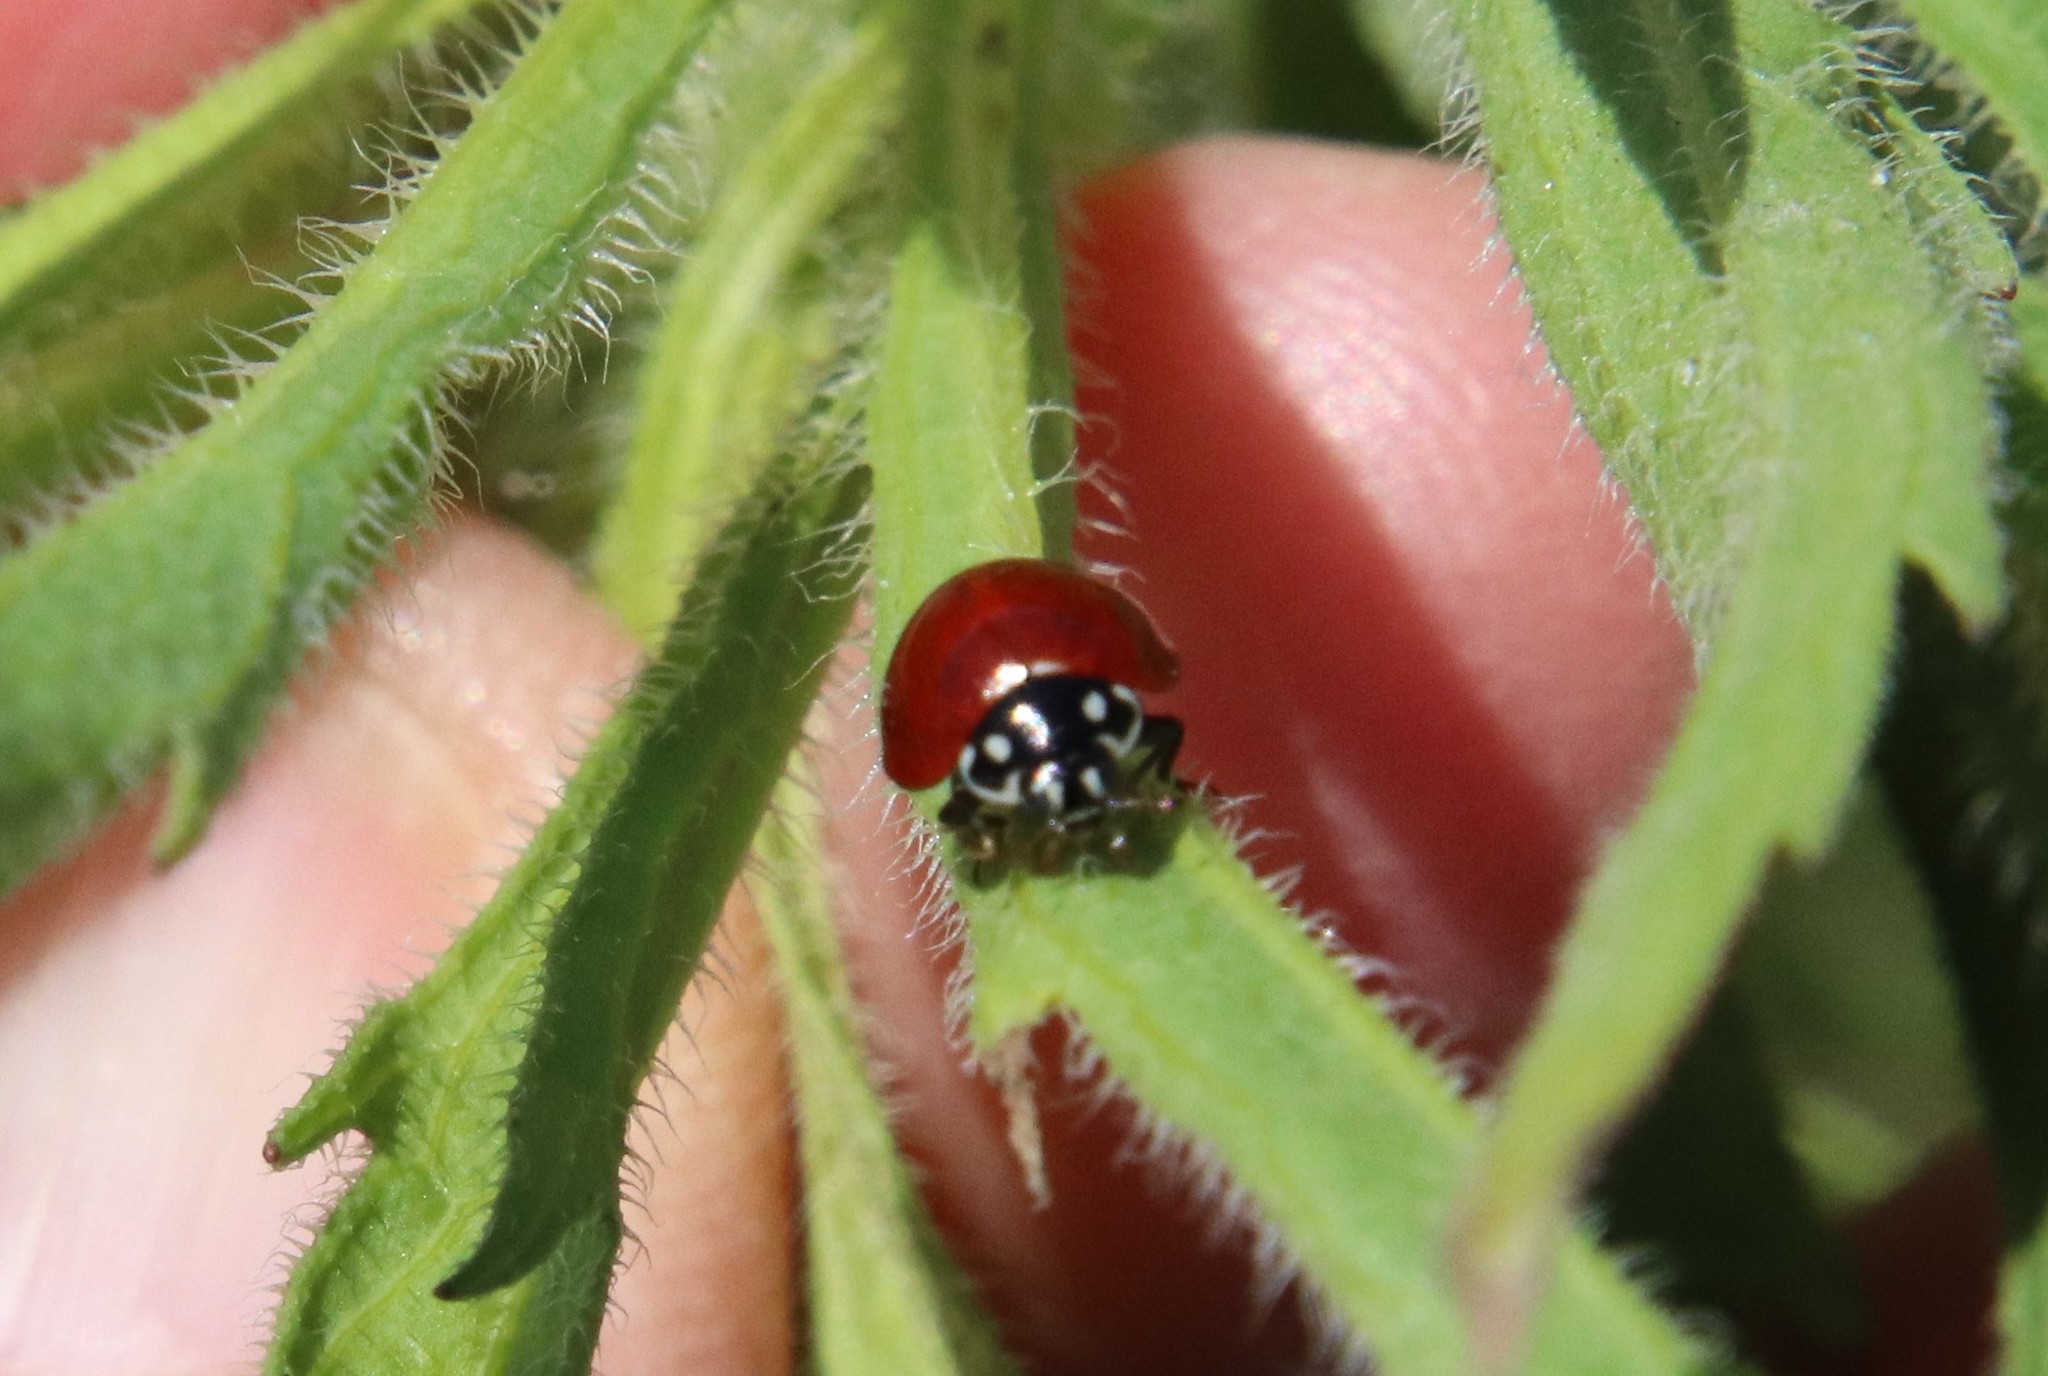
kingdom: Animalia
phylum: Arthropoda
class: Insecta
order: Coleoptera
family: Coccinellidae
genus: Cycloneda
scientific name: Cycloneda sanguinea
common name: Ladybird beetle
